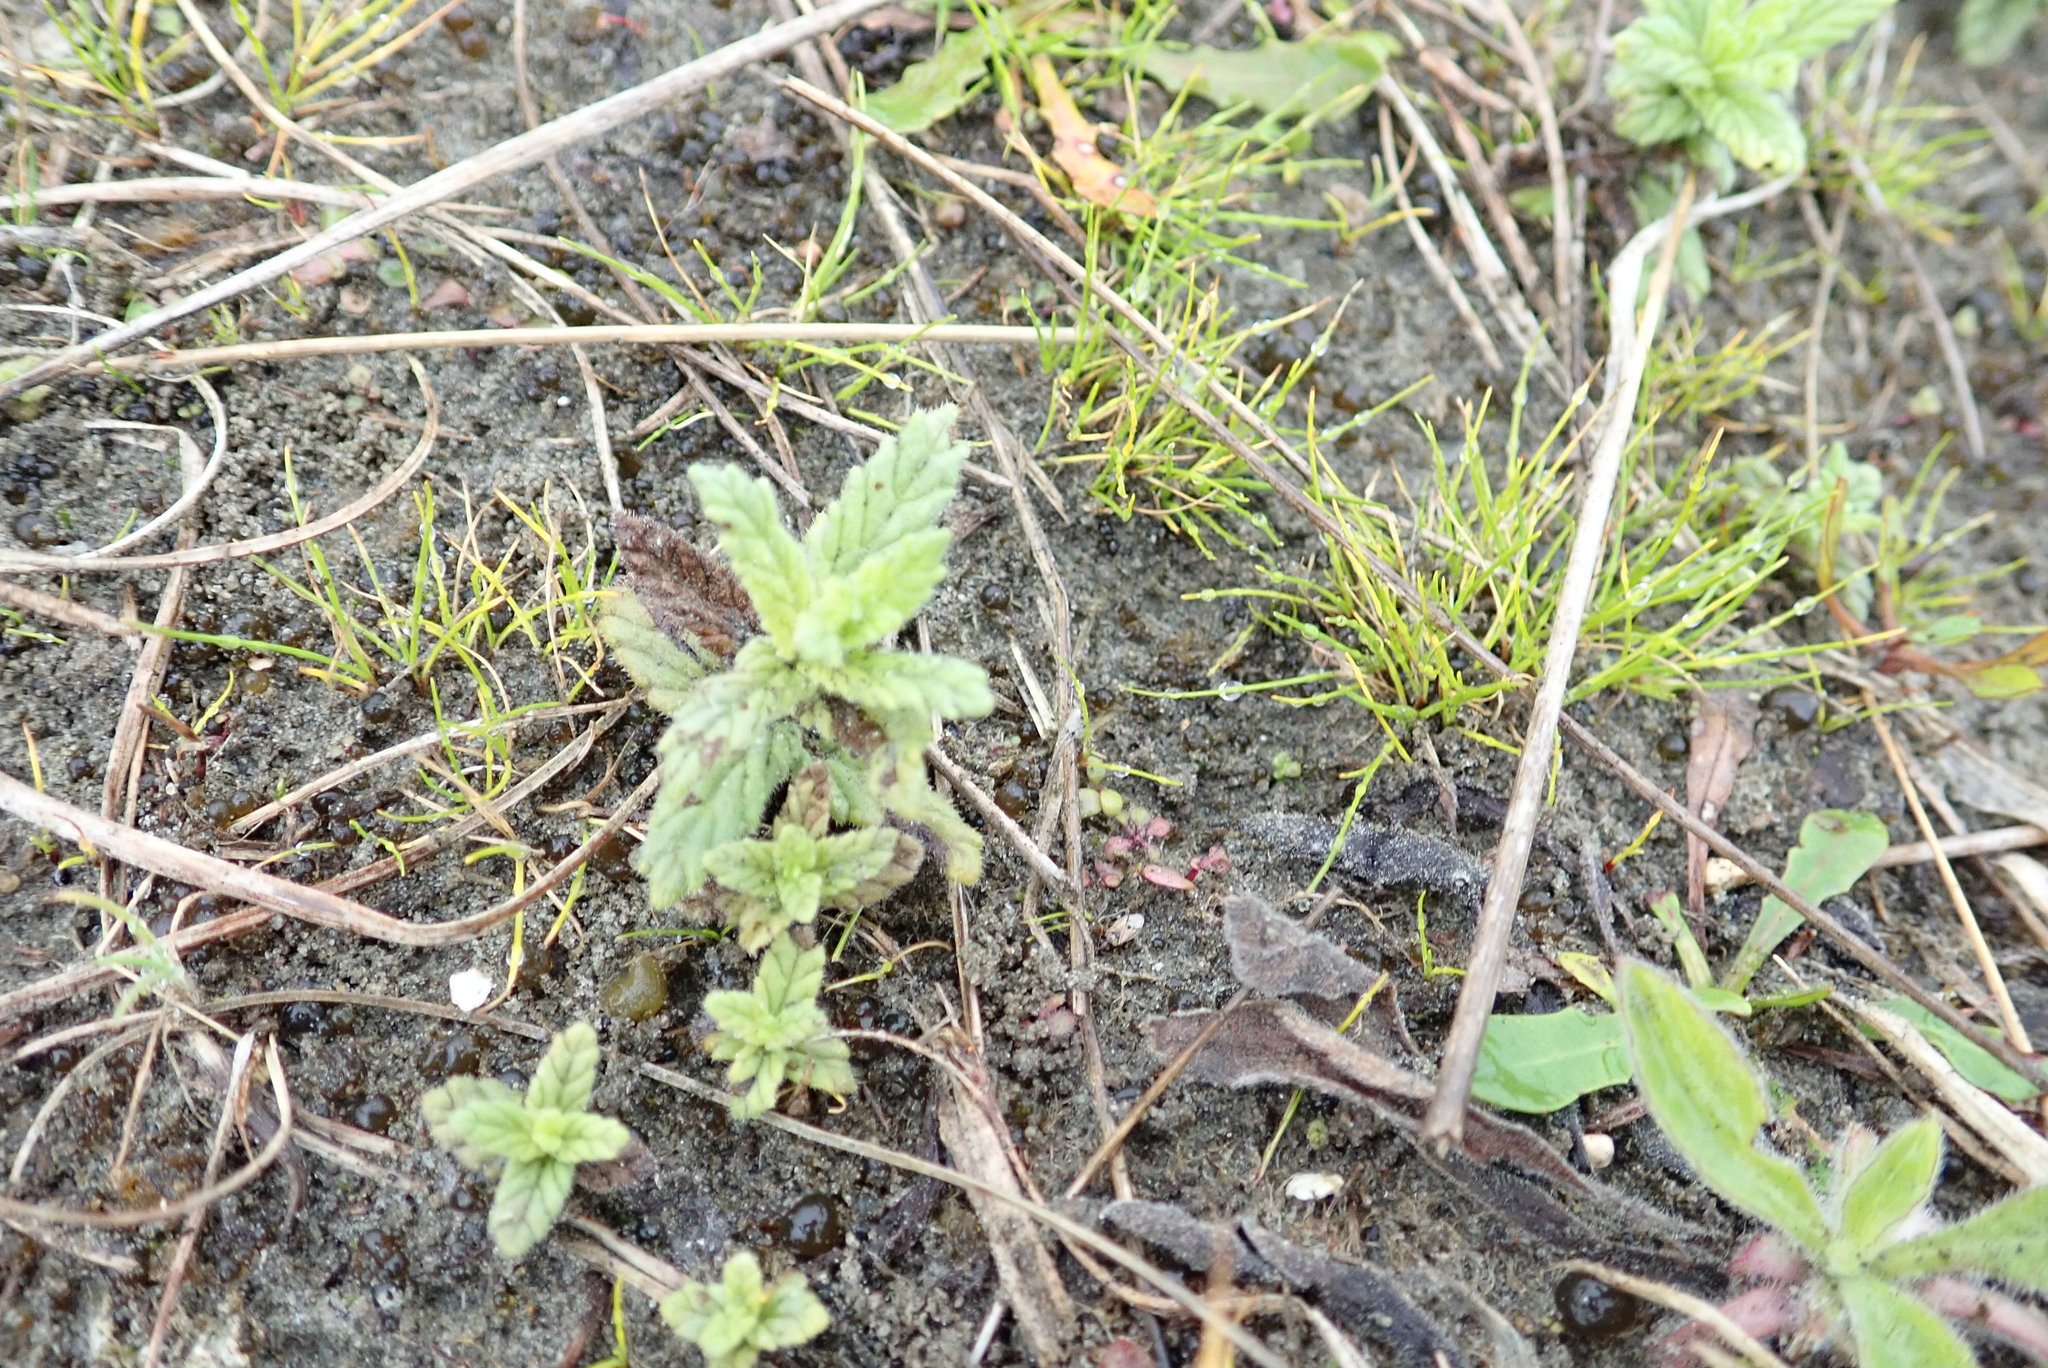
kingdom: Plantae
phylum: Tracheophyta
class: Magnoliopsida
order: Lamiales
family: Orobanchaceae
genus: Bellardia
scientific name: Bellardia viscosa
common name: Sticky parentucellia
